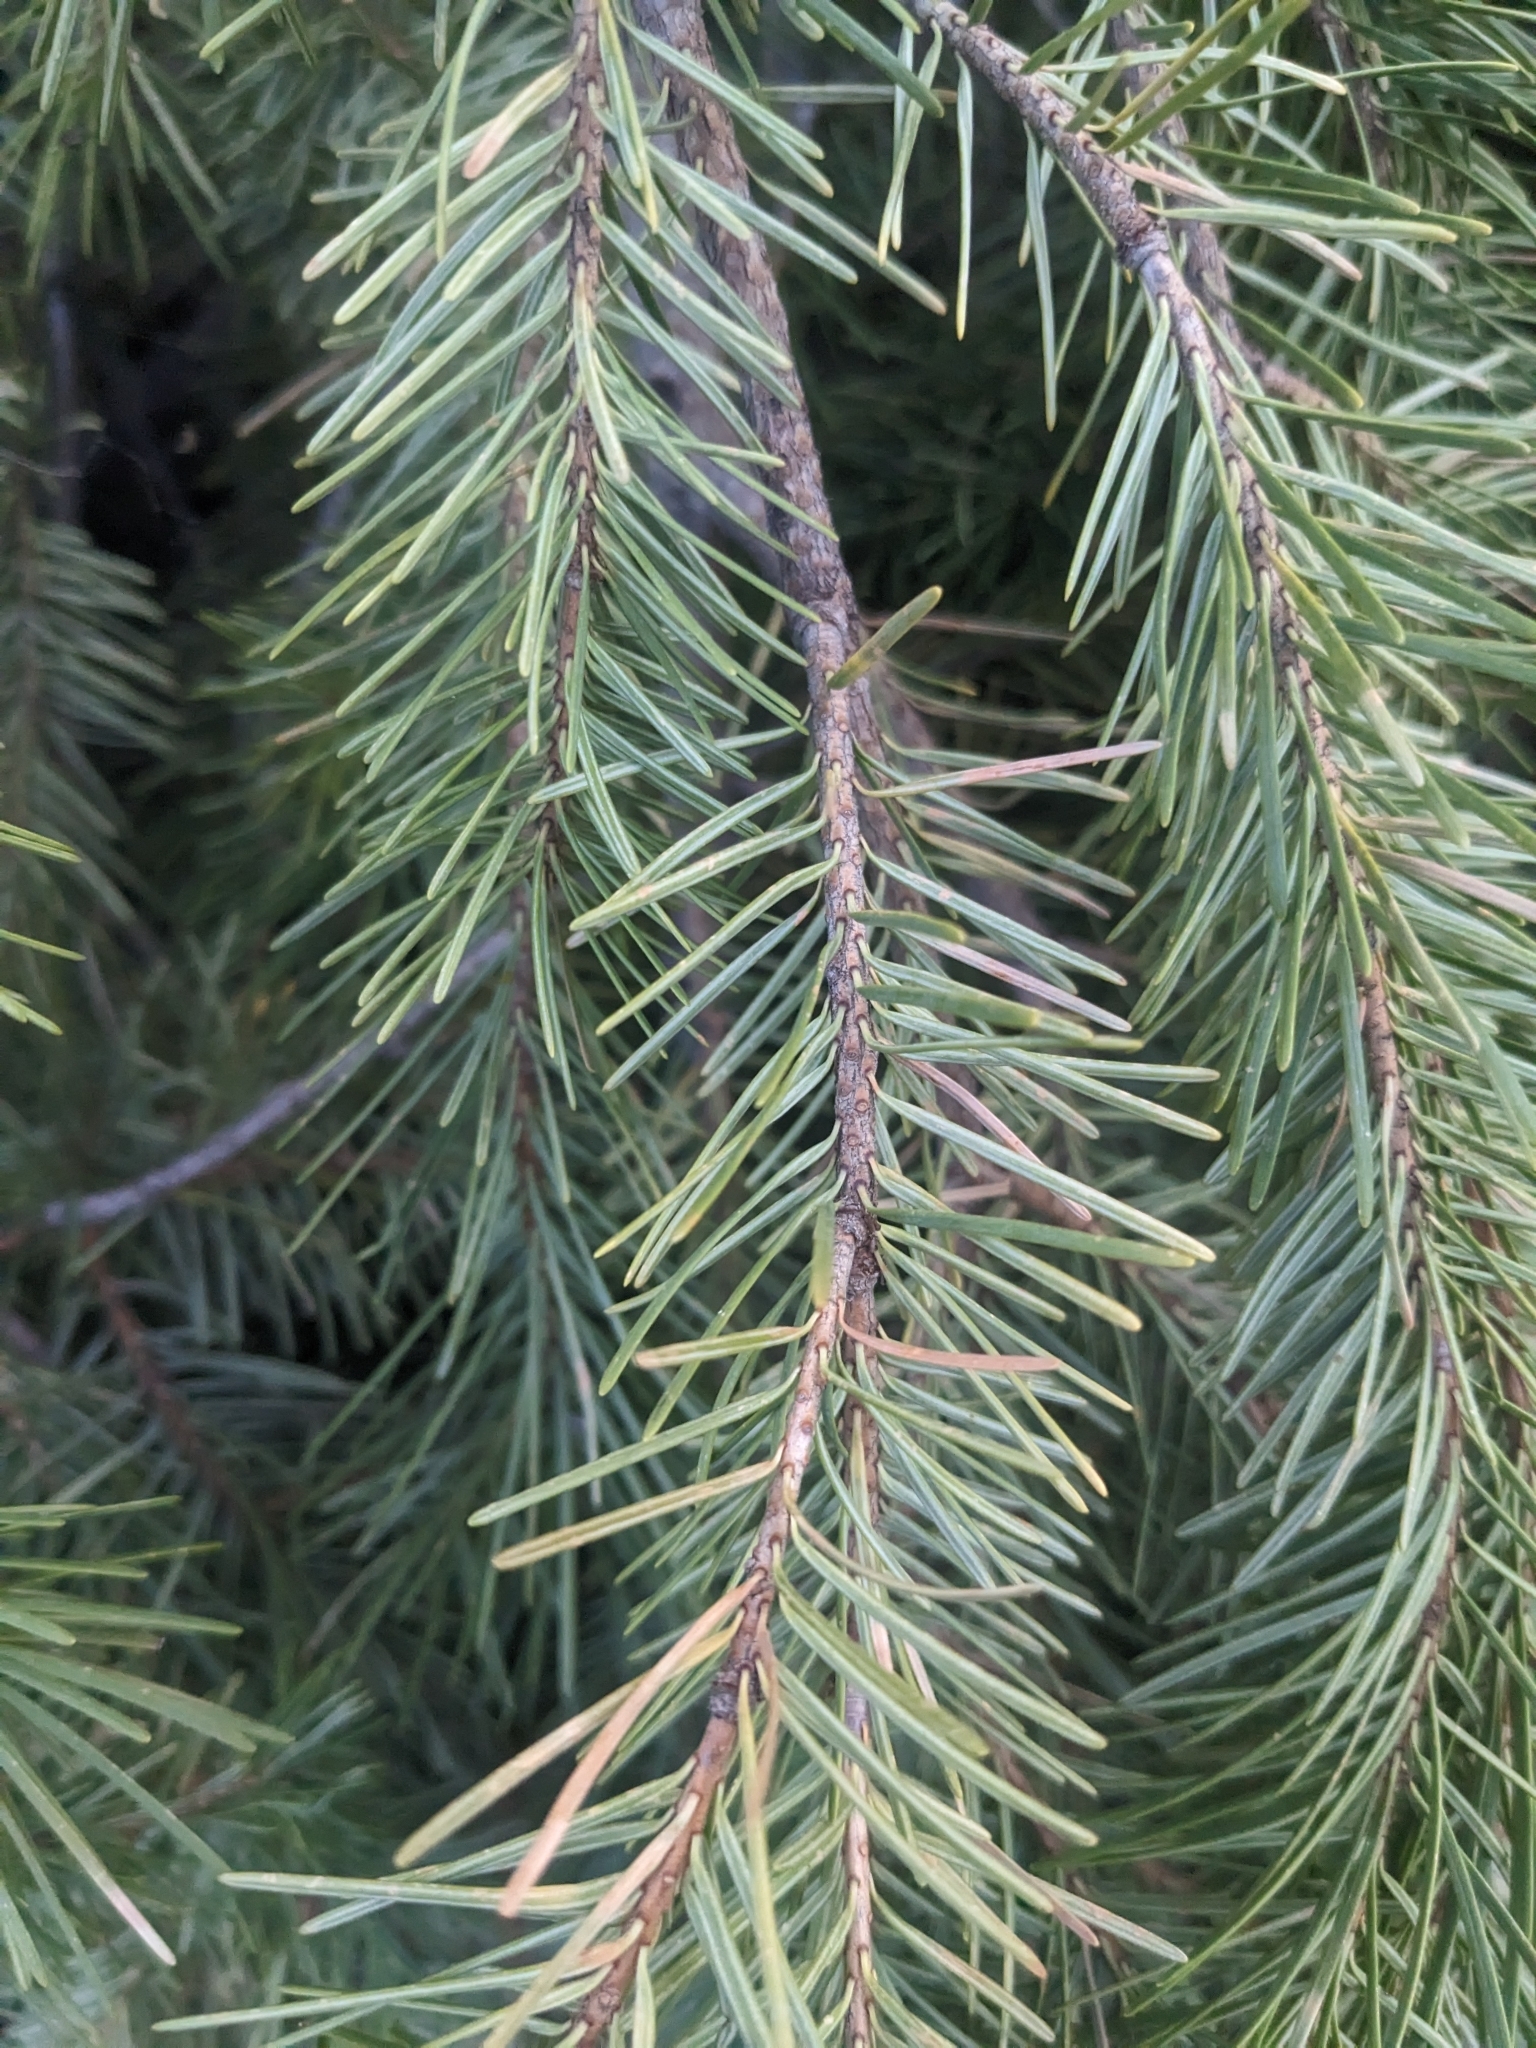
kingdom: Plantae
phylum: Tracheophyta
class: Pinopsida
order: Pinales
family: Pinaceae
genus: Pseudotsuga
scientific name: Pseudotsuga menziesii
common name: Douglas fir
